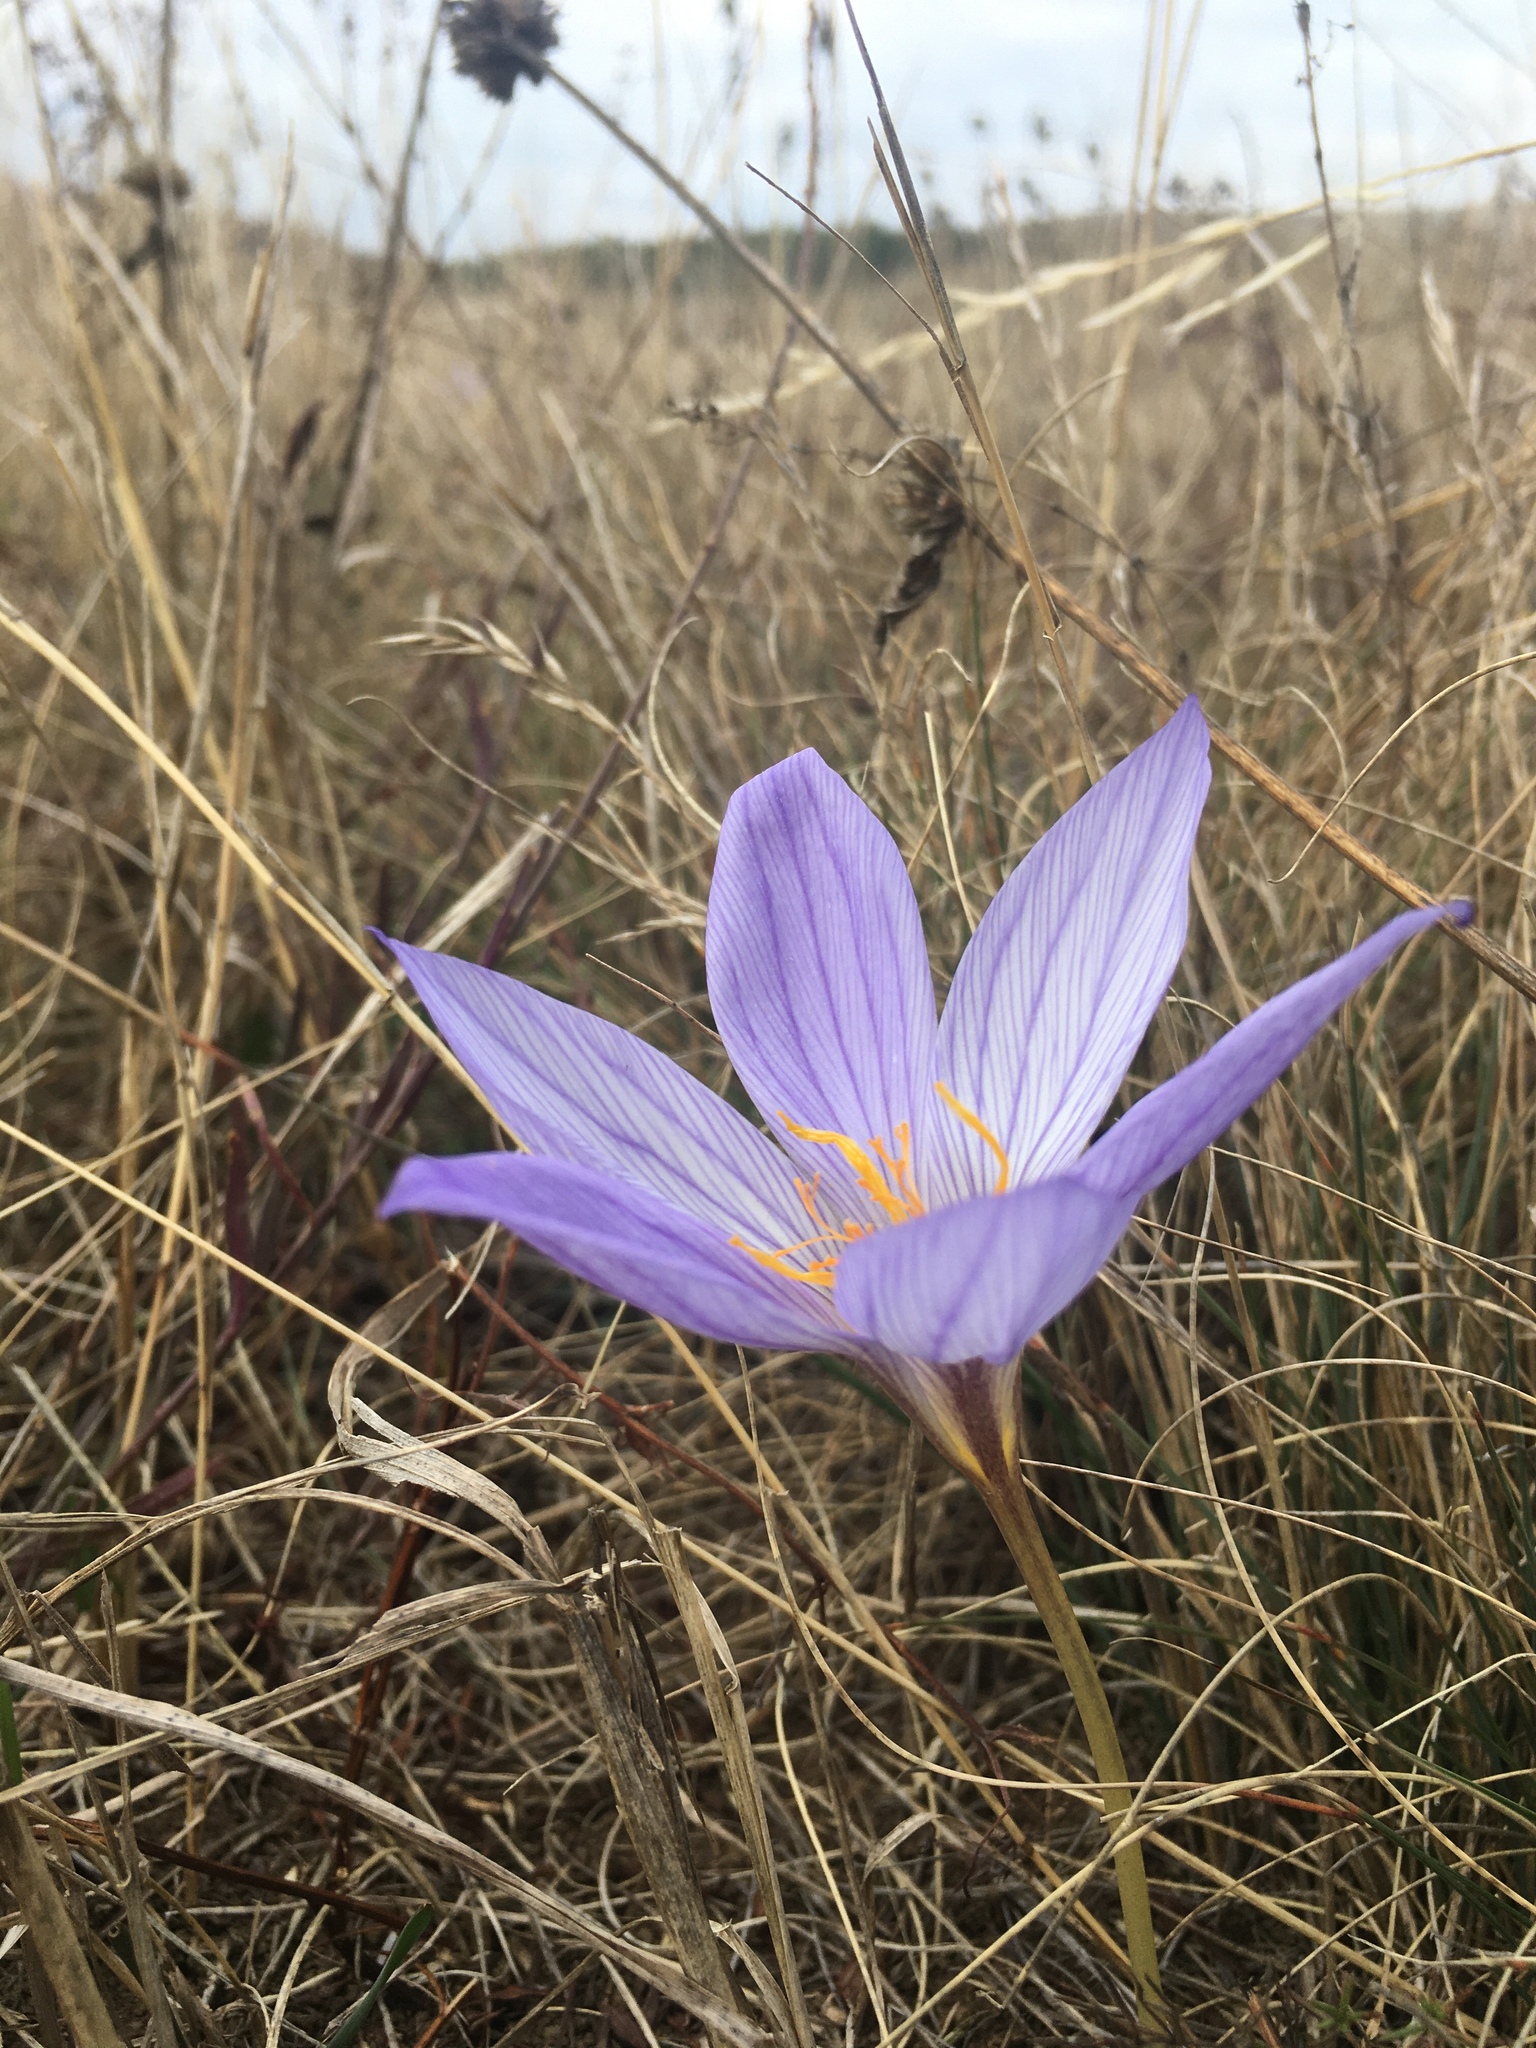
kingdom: Plantae
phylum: Tracheophyta
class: Liliopsida
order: Asparagales
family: Iridaceae
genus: Crocus
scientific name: Crocus speciosus
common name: Bieberstein's crocus
